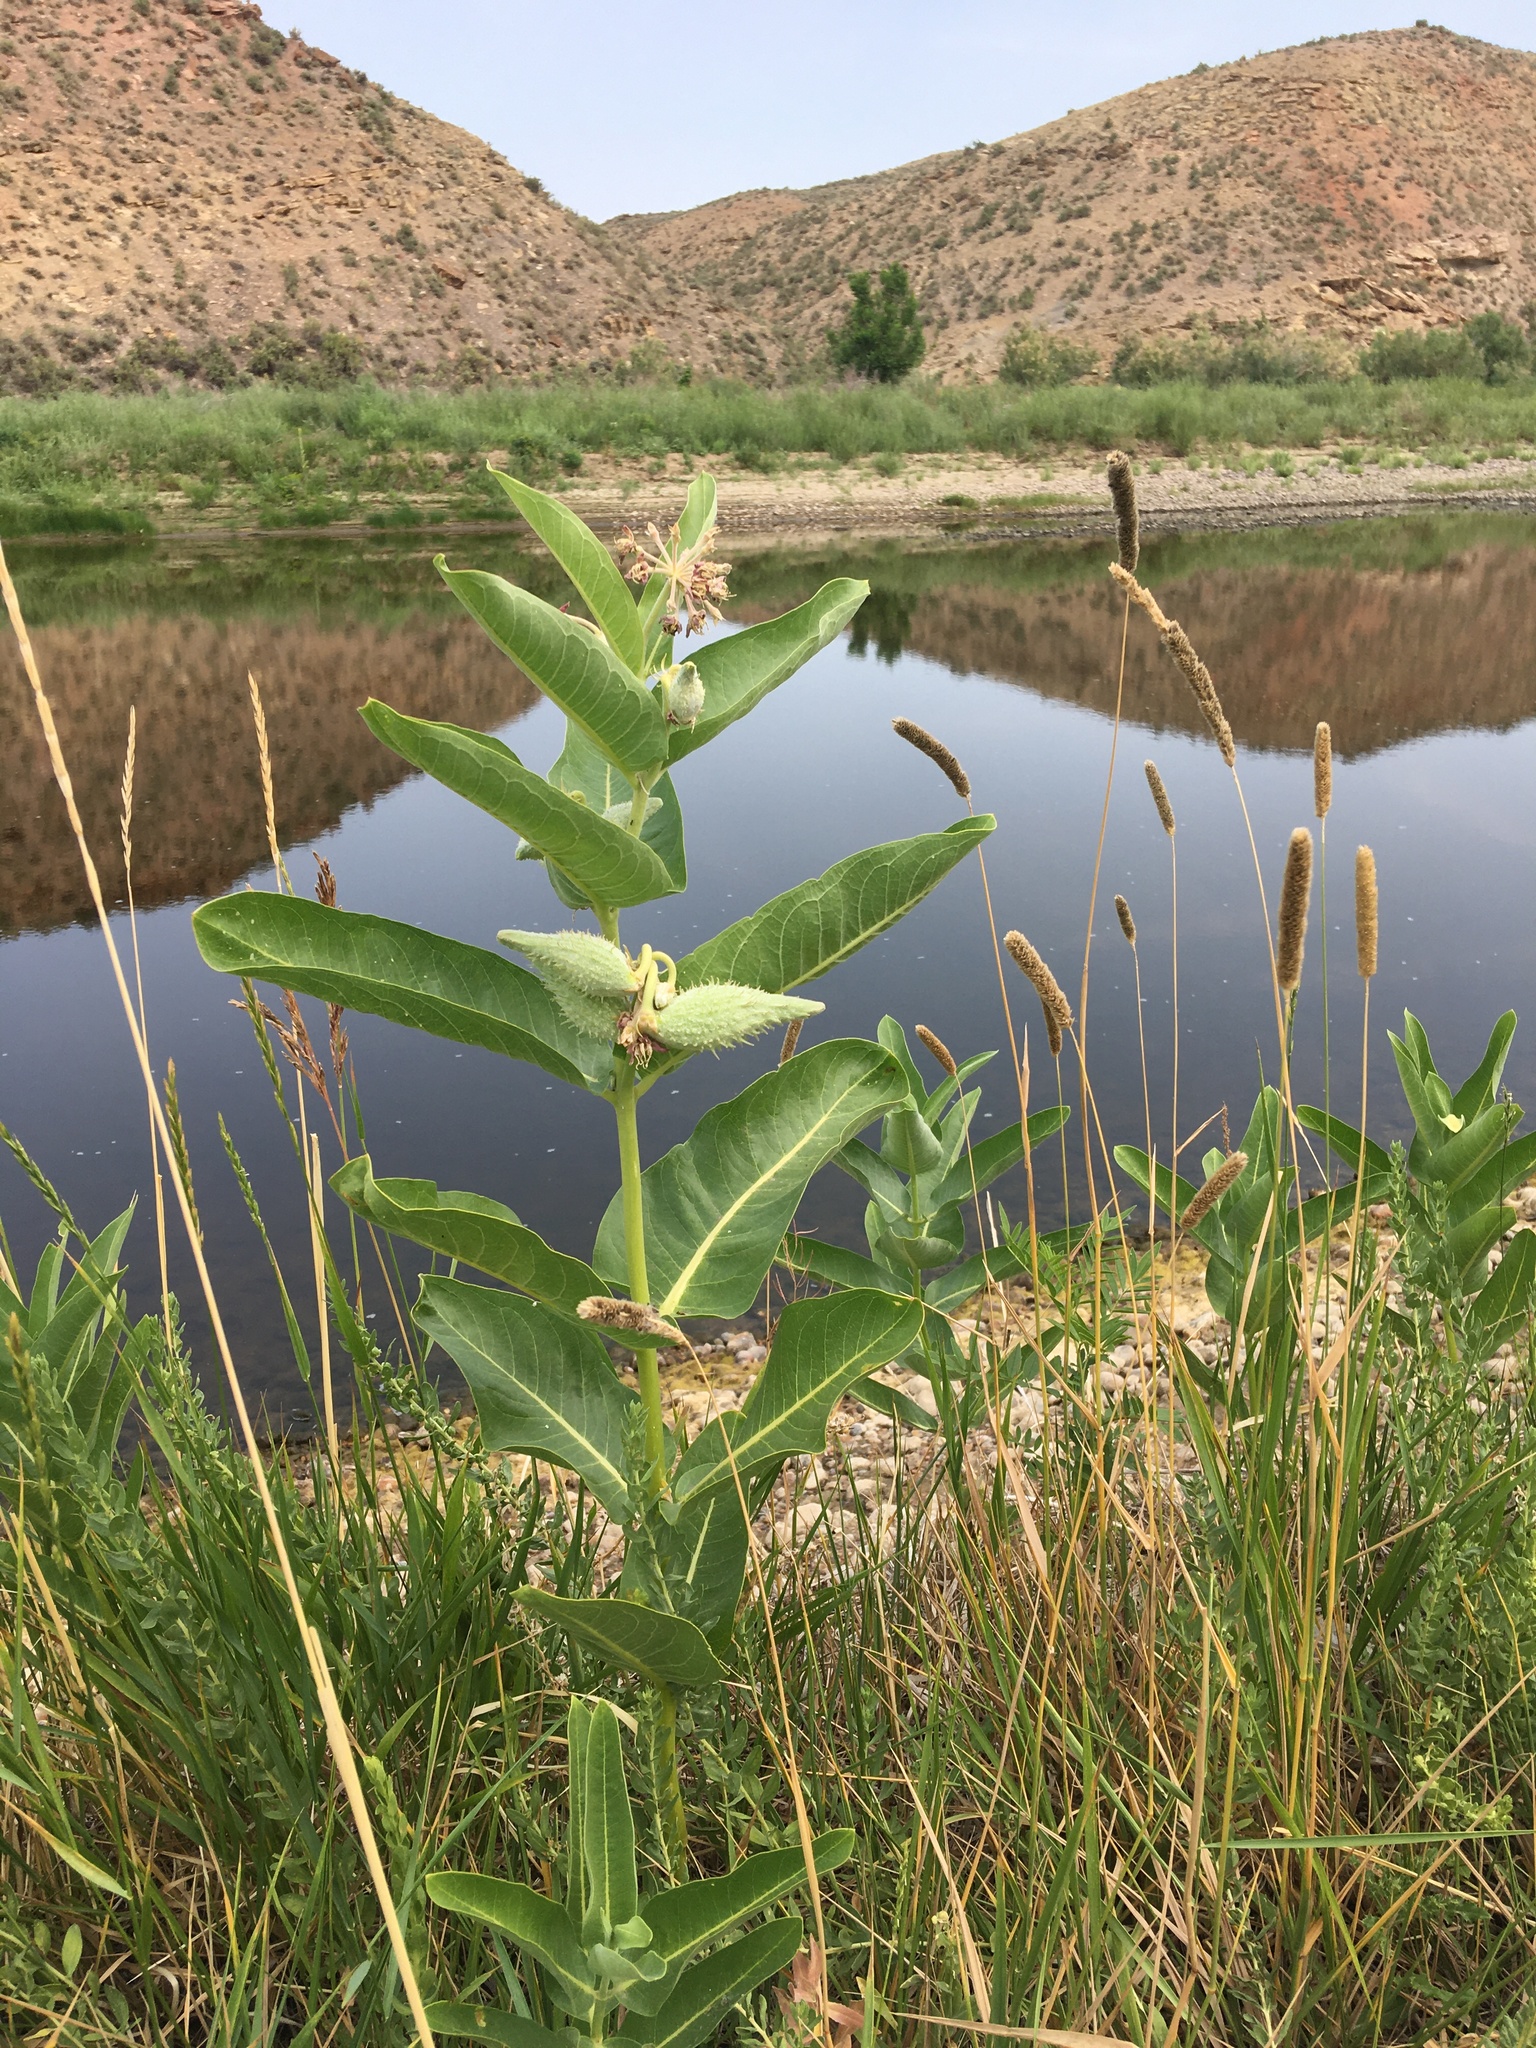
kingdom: Plantae
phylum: Tracheophyta
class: Magnoliopsida
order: Gentianales
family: Apocynaceae
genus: Asclepias
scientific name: Asclepias speciosa
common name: Showy milkweed
